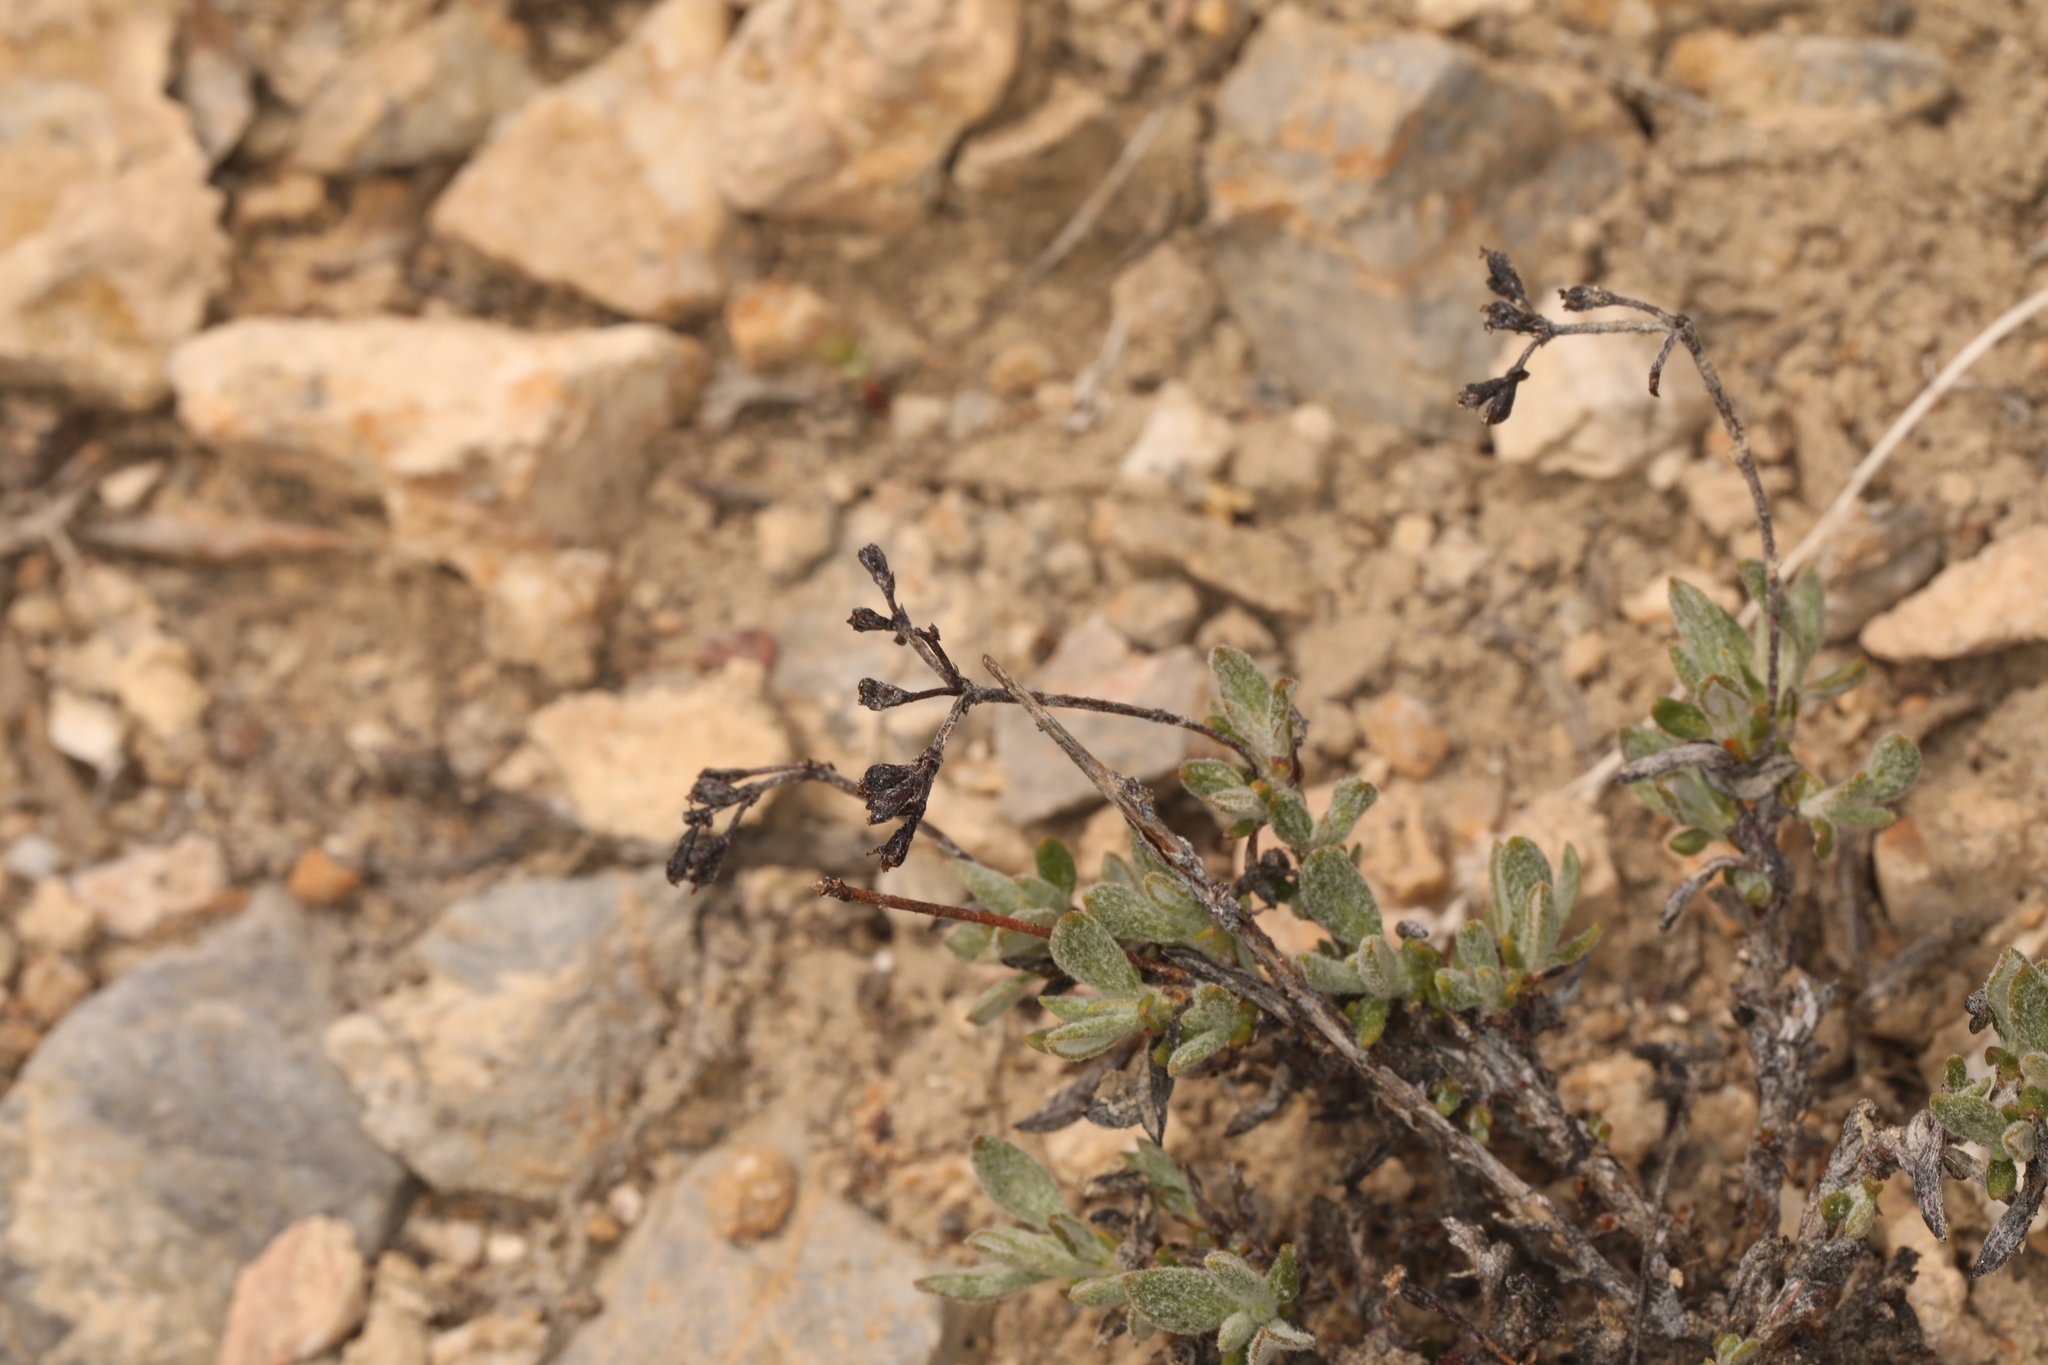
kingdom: Plantae
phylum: Tracheophyta
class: Magnoliopsida
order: Caryophyllales
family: Polygonaceae
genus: Eriogonum
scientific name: Eriogonum microtheca
